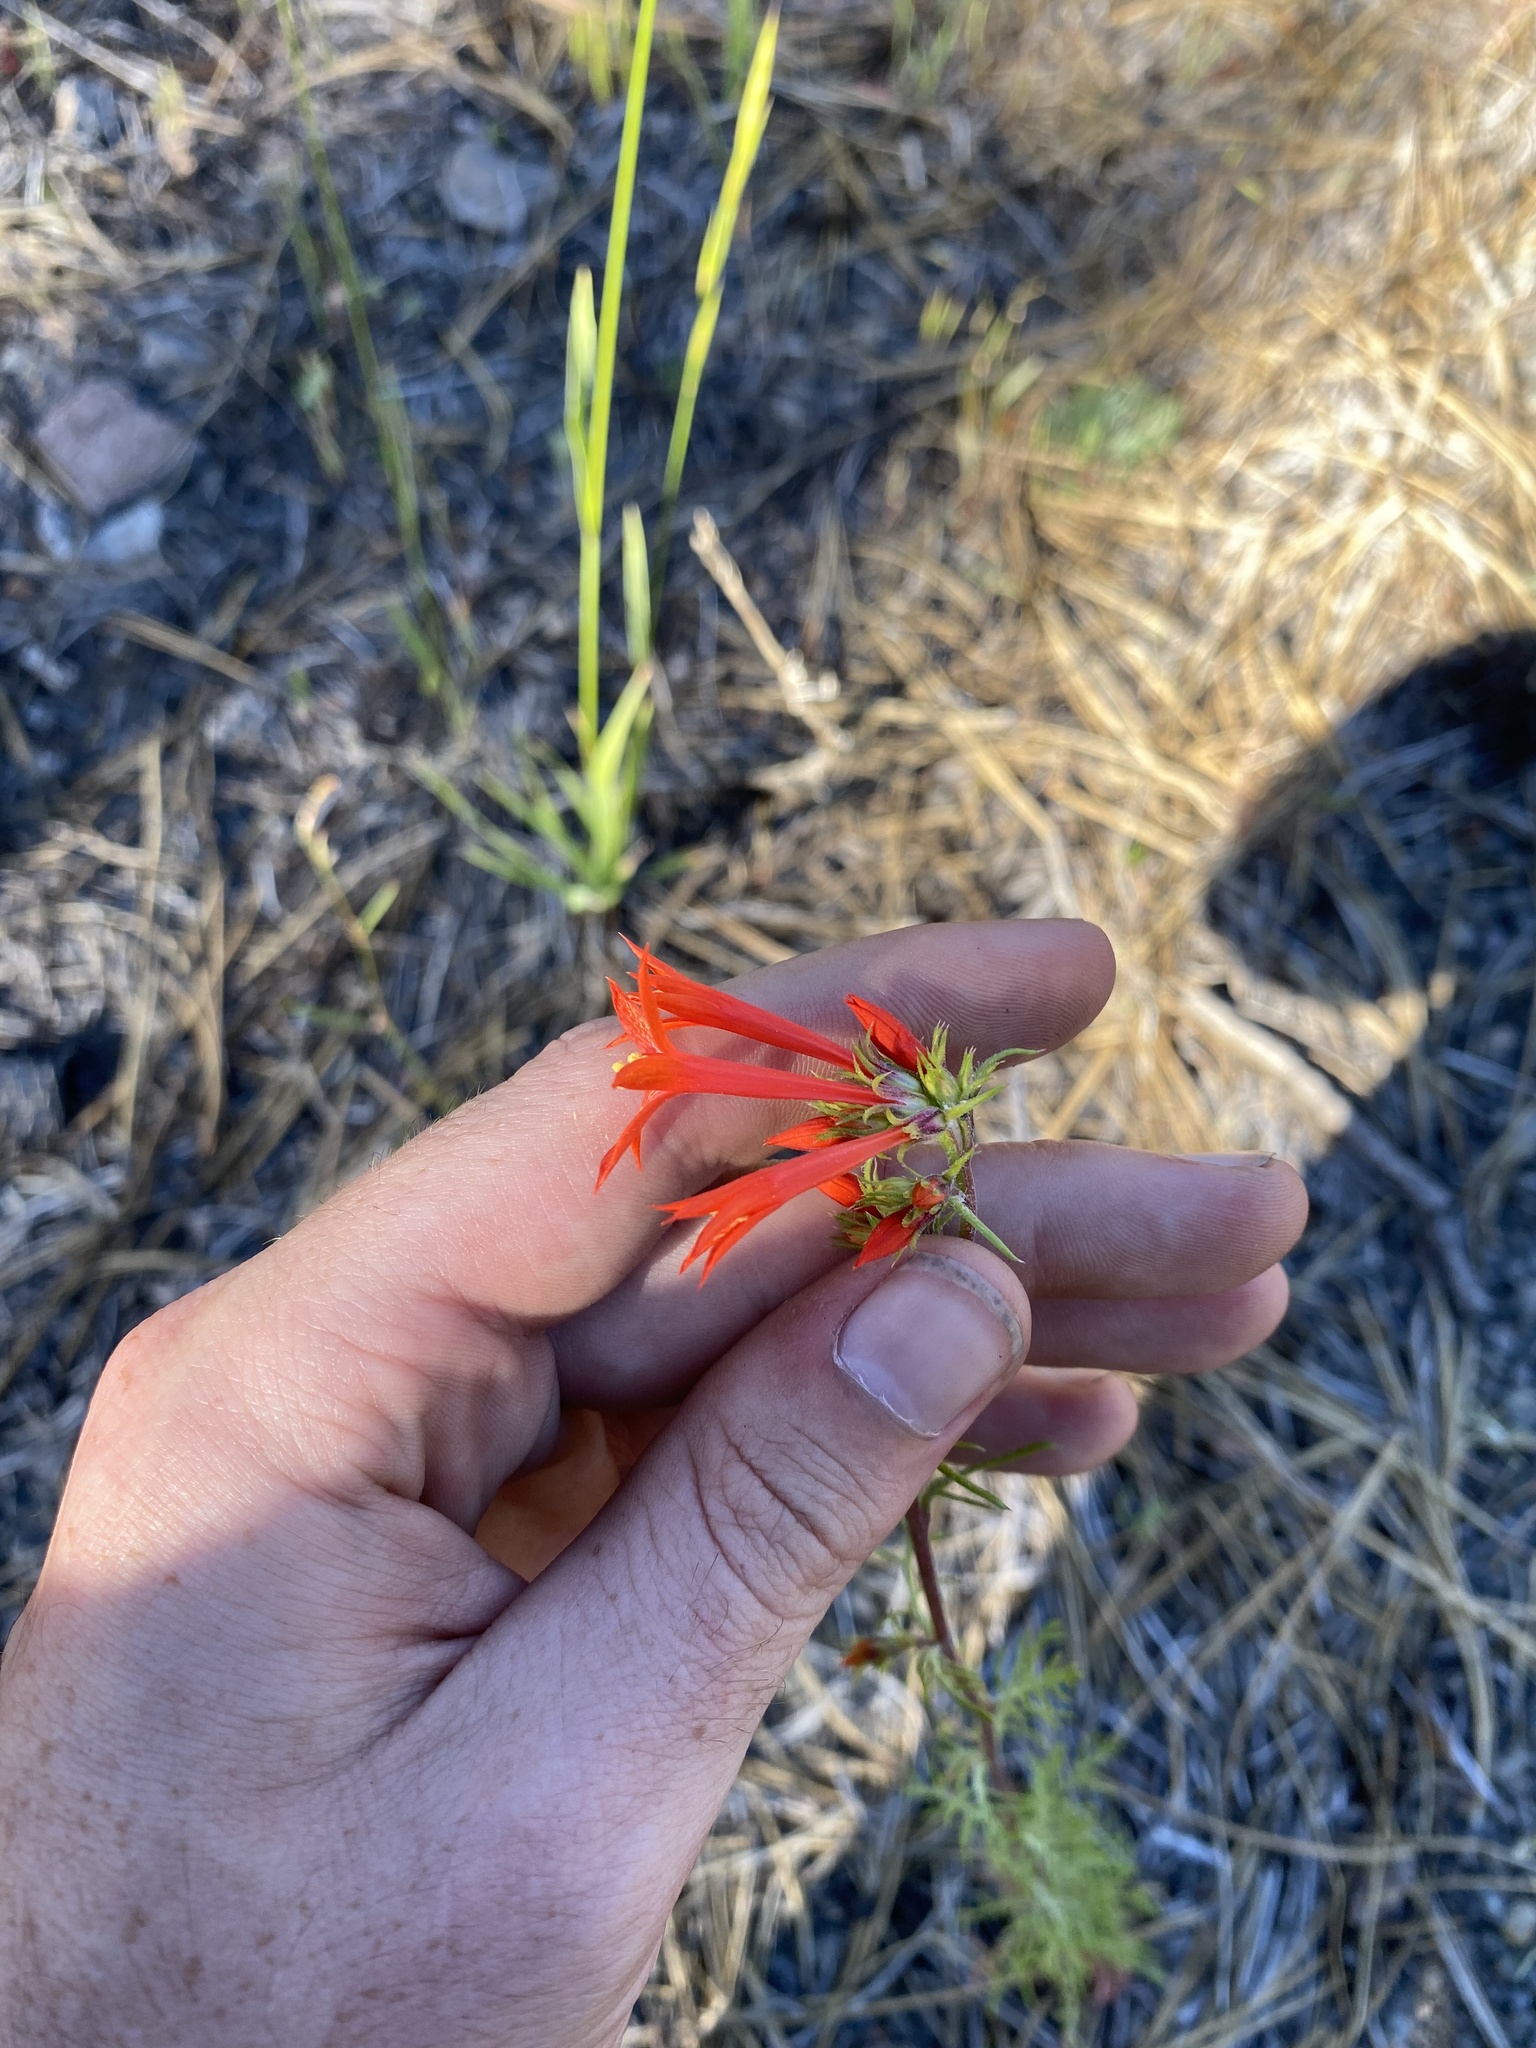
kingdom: Plantae
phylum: Tracheophyta
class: Magnoliopsida
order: Ericales
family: Polemoniaceae
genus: Ipomopsis
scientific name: Ipomopsis aggregata
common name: Scarlet gilia
